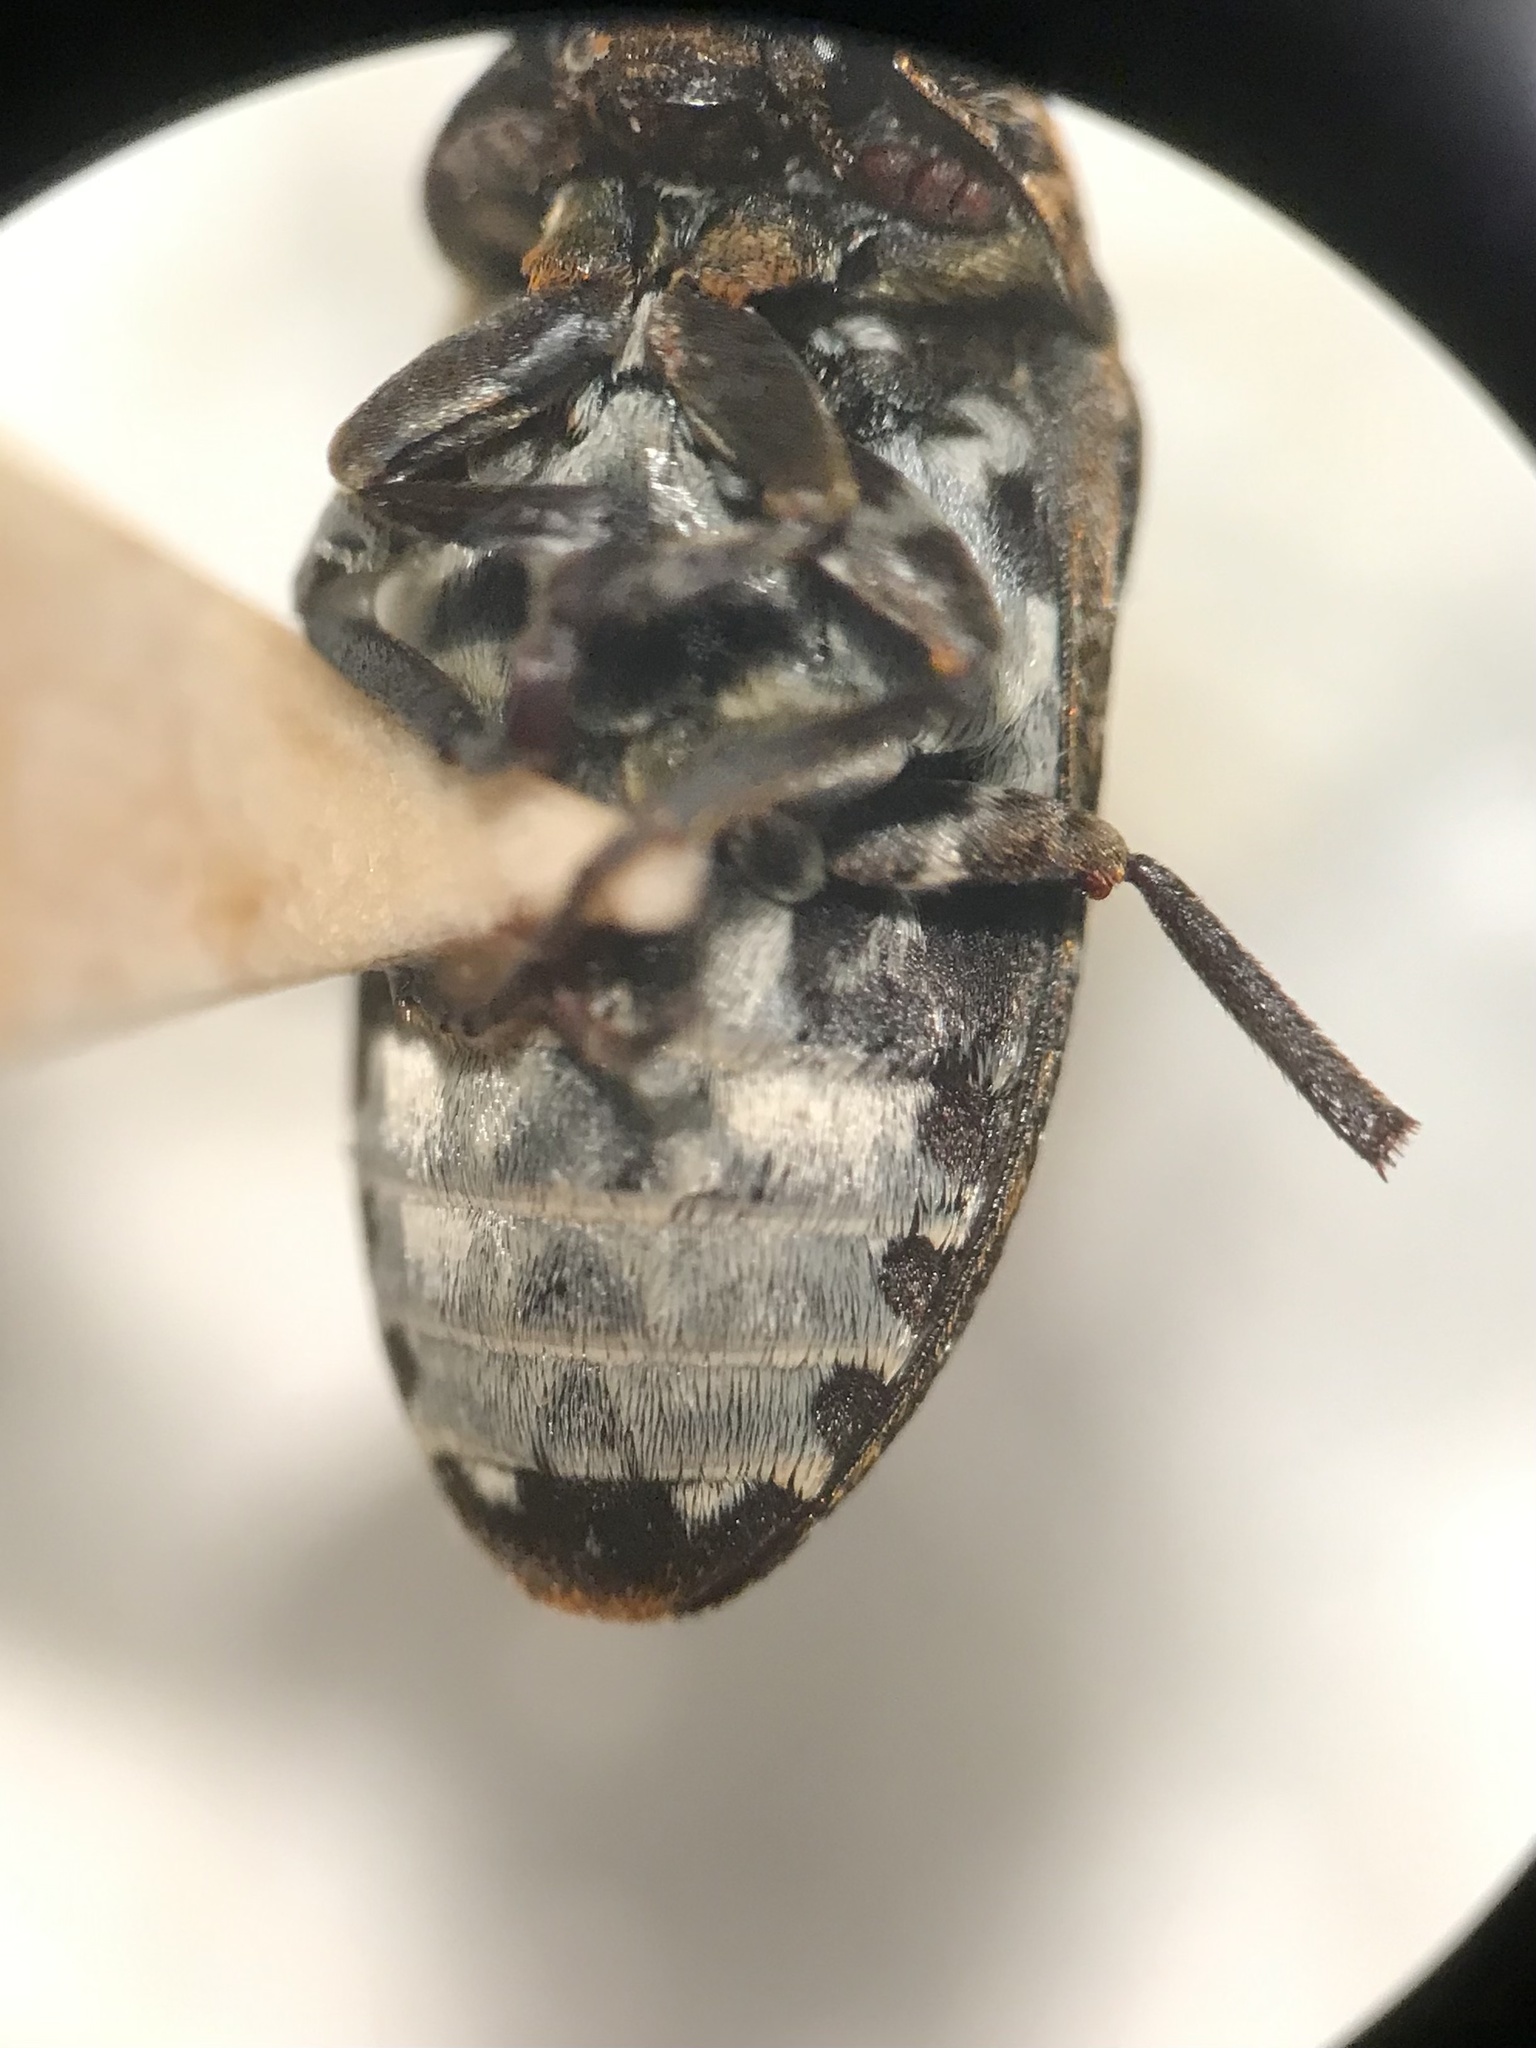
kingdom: Animalia
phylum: Arthropoda
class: Insecta
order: Coleoptera
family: Dermestidae
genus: Dermestes
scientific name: Dermestes undulatus
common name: Wavy carpet beetle
